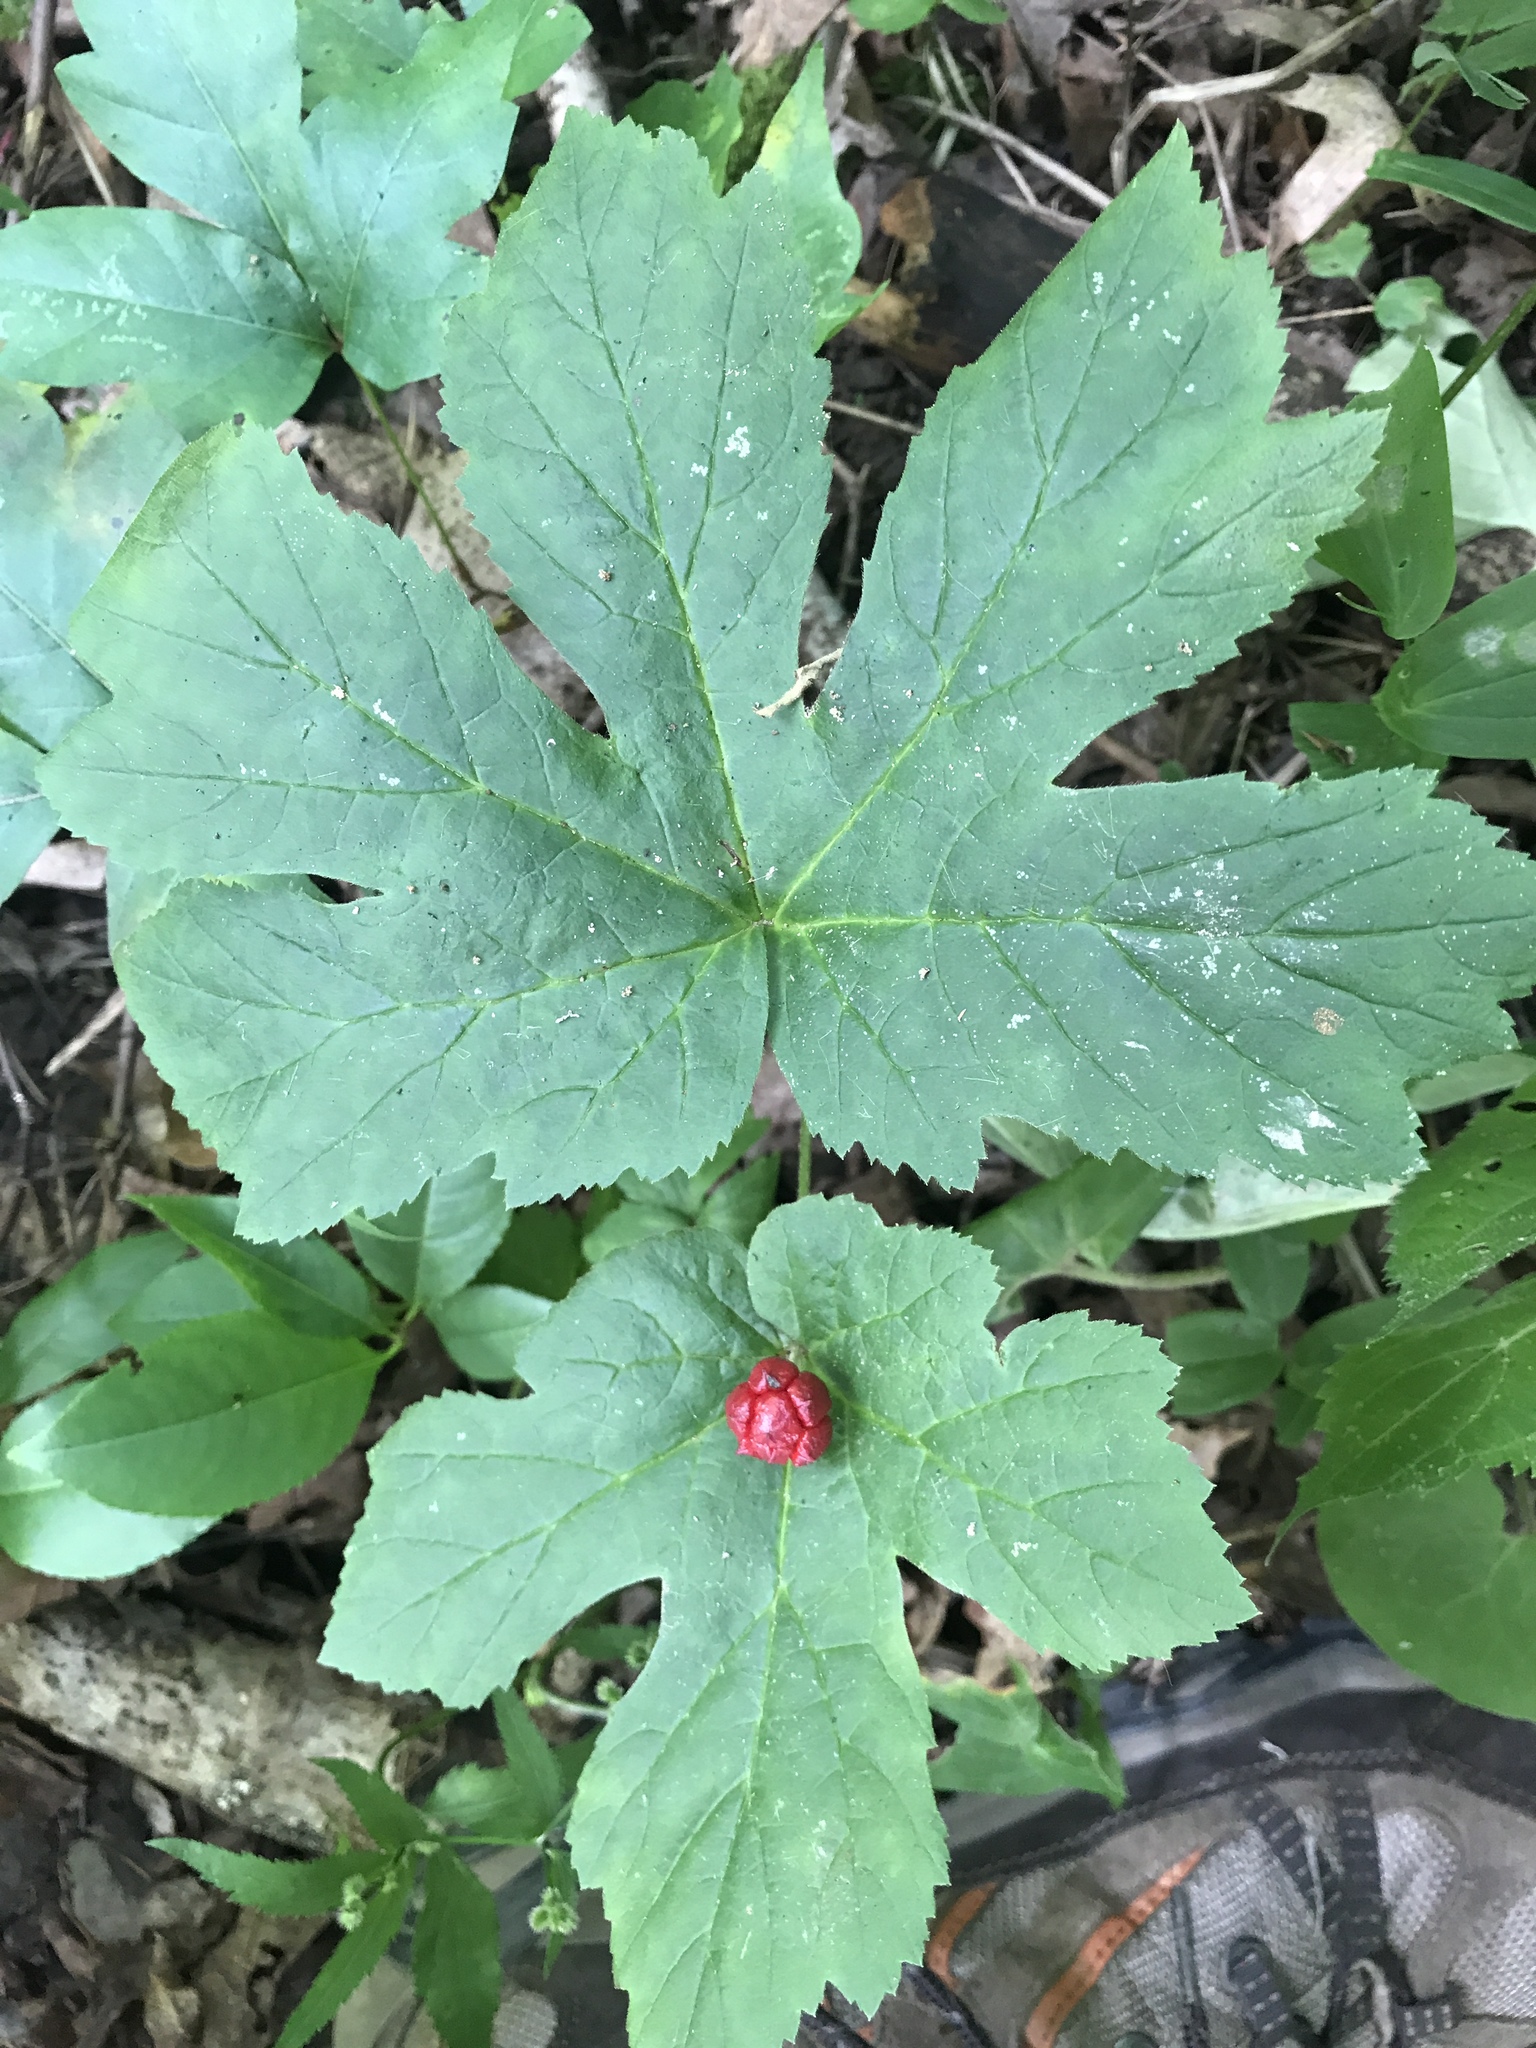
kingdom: Plantae
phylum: Tracheophyta
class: Magnoliopsida
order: Ranunculales
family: Ranunculaceae
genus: Hydrastis
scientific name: Hydrastis canadensis
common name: Goldenseal
